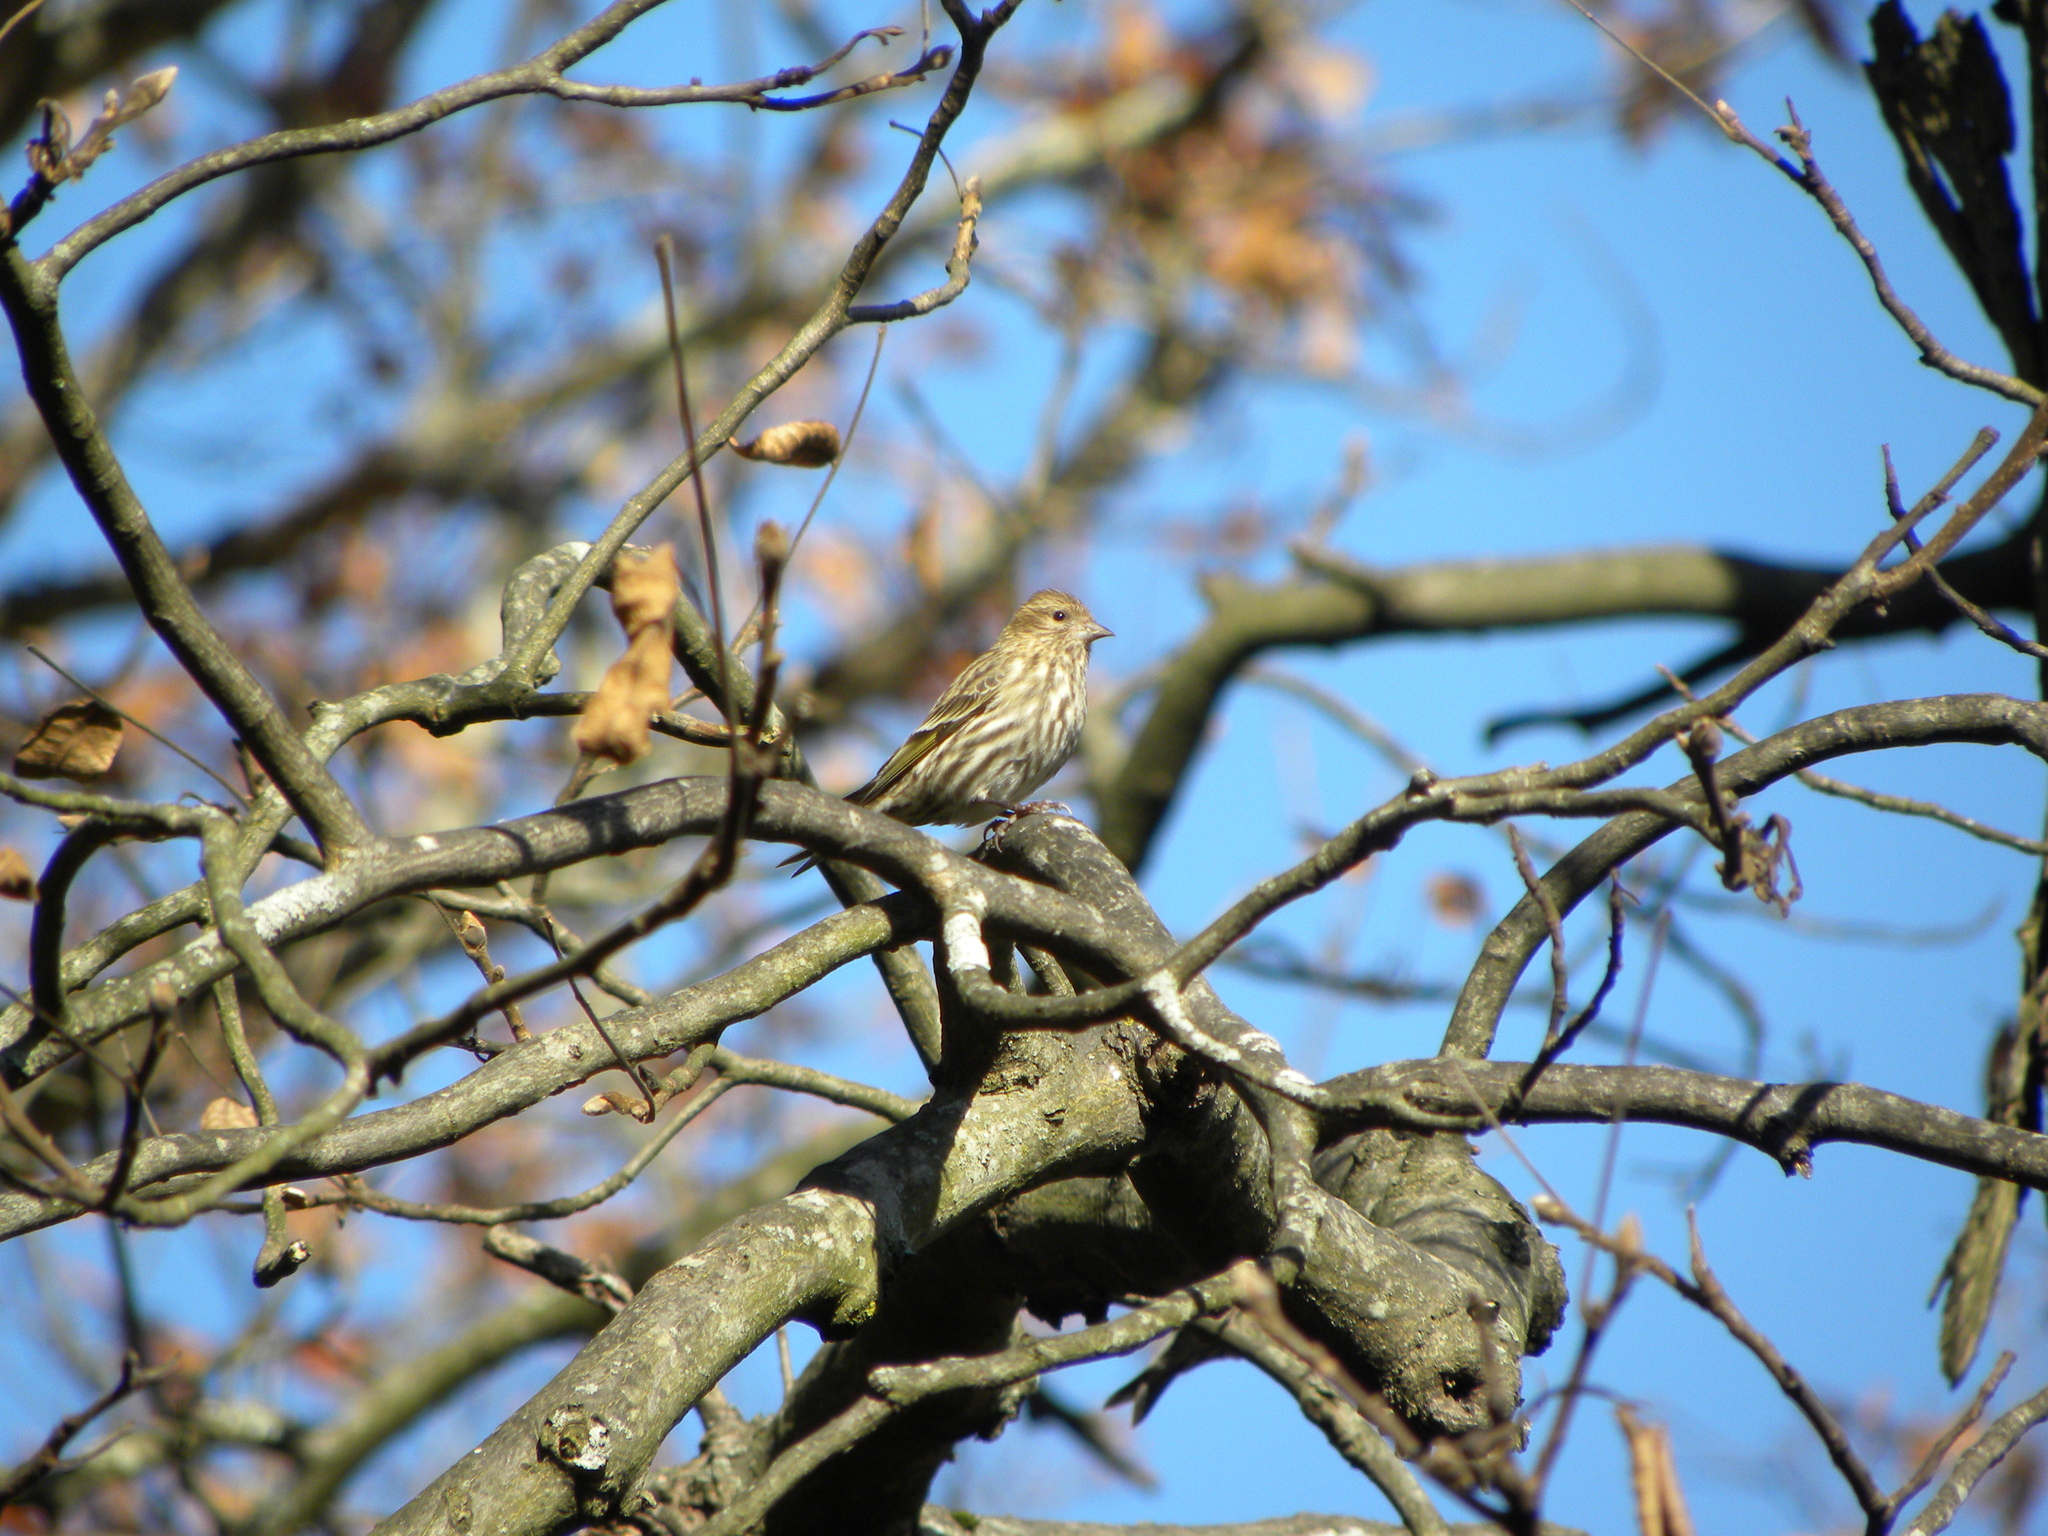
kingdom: Animalia
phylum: Chordata
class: Aves
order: Passeriformes
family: Fringillidae
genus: Spinus
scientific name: Spinus pinus
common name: Pine siskin
